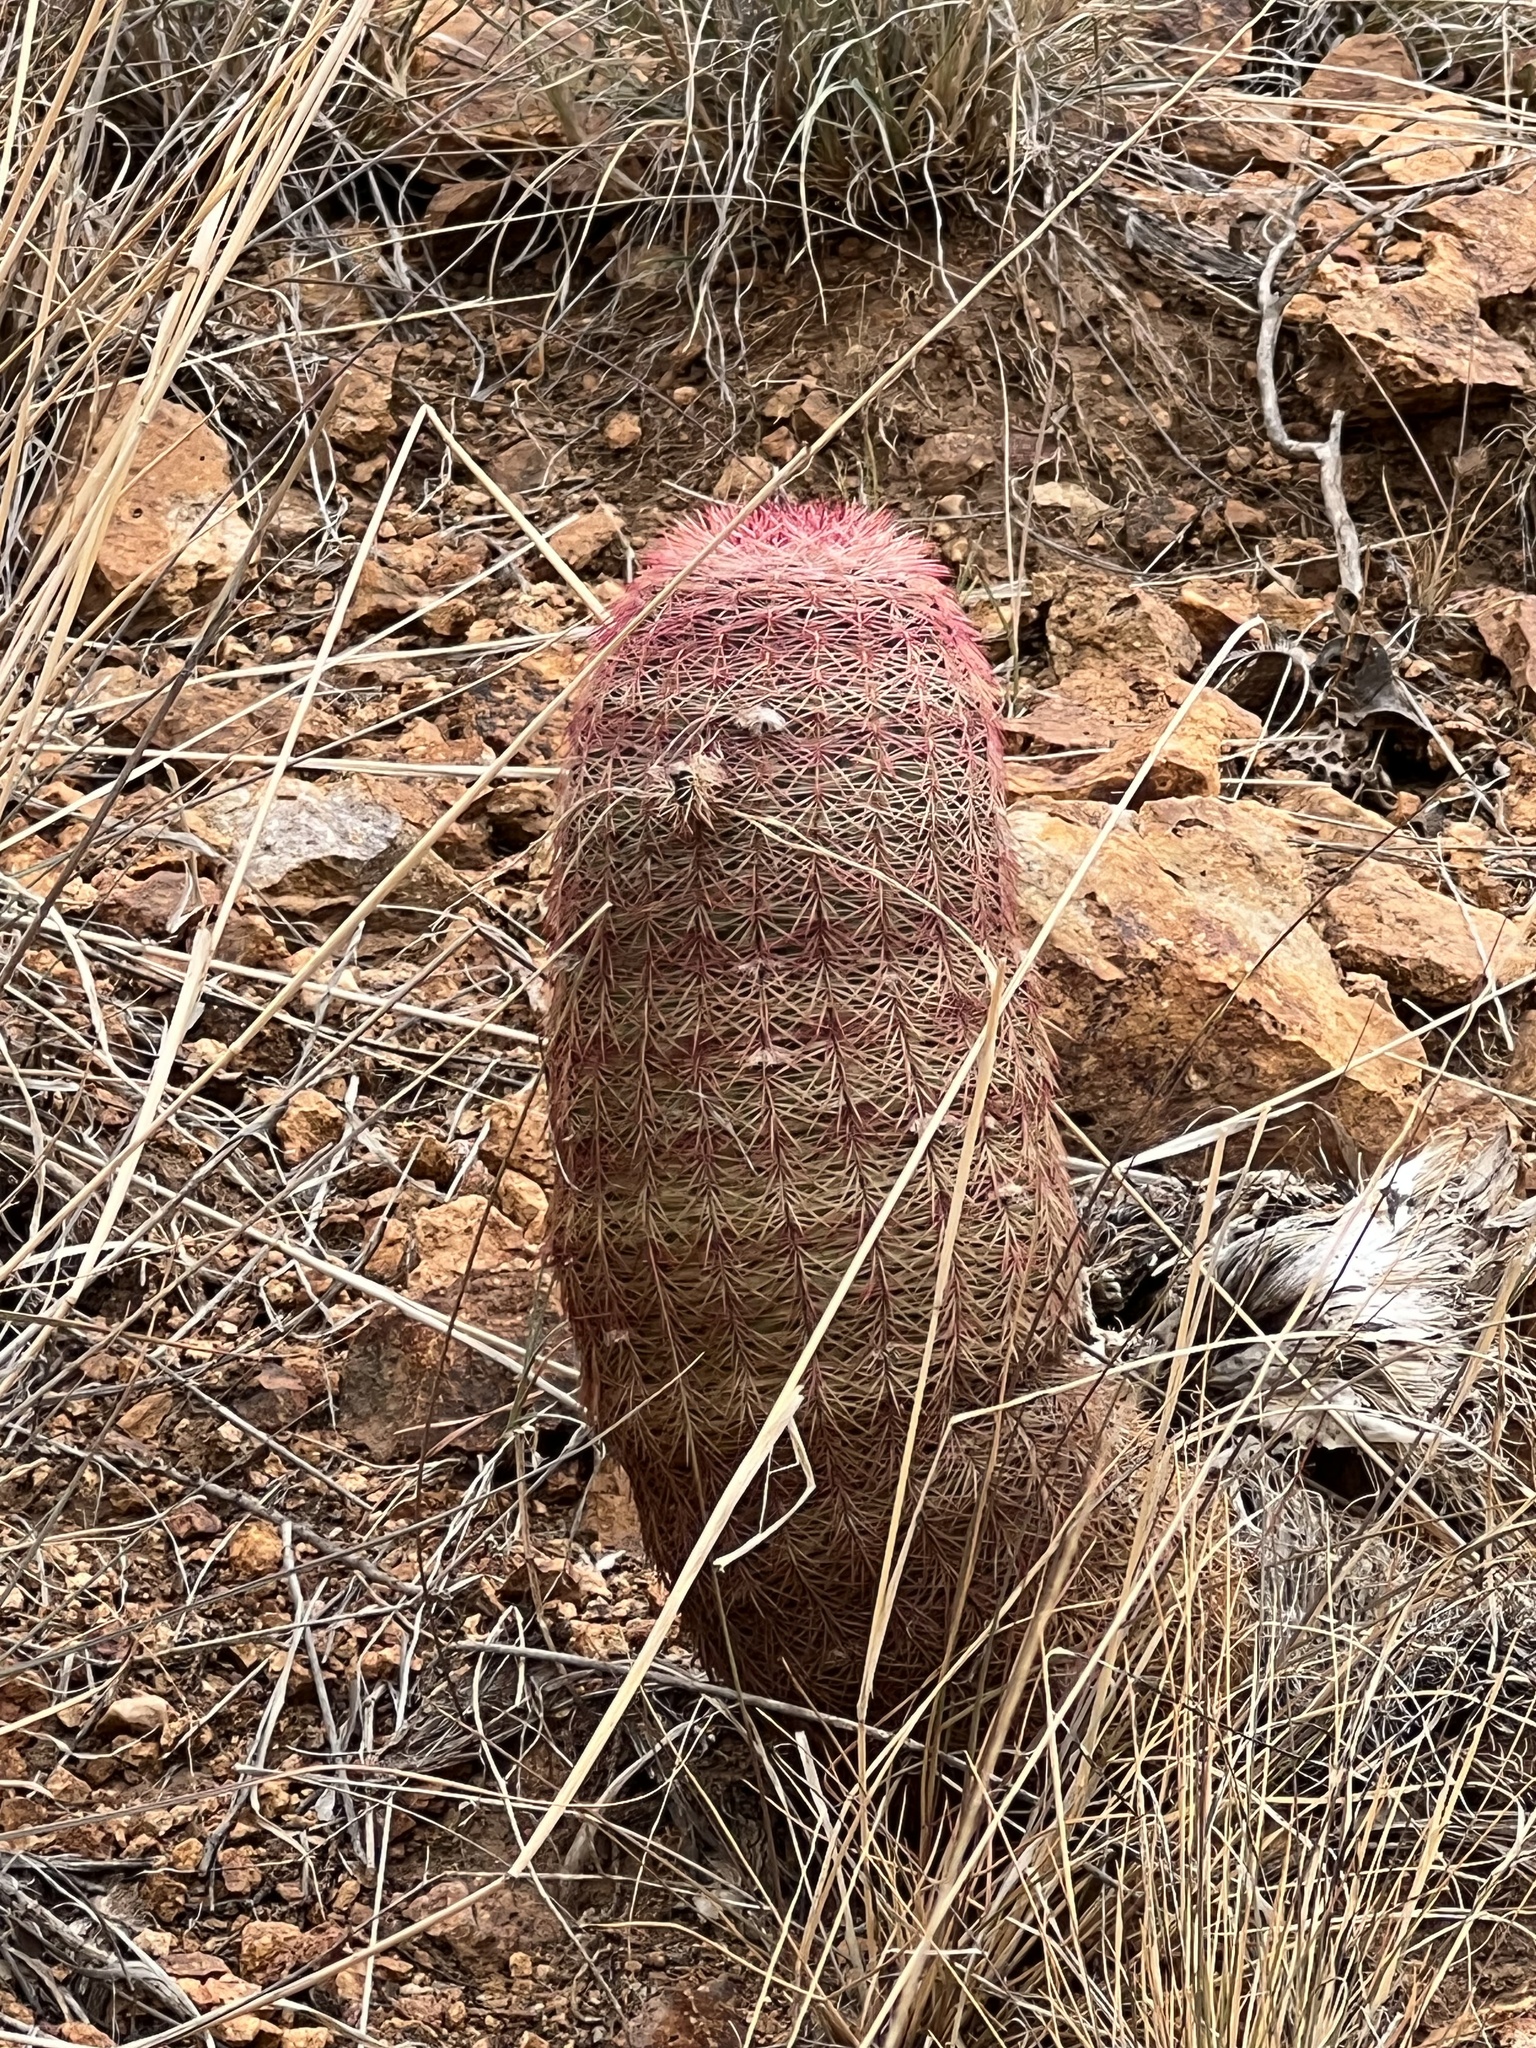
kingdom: Plantae
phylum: Tracheophyta
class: Magnoliopsida
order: Caryophyllales
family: Cactaceae
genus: Echinocereus
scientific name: Echinocereus rigidissimus
